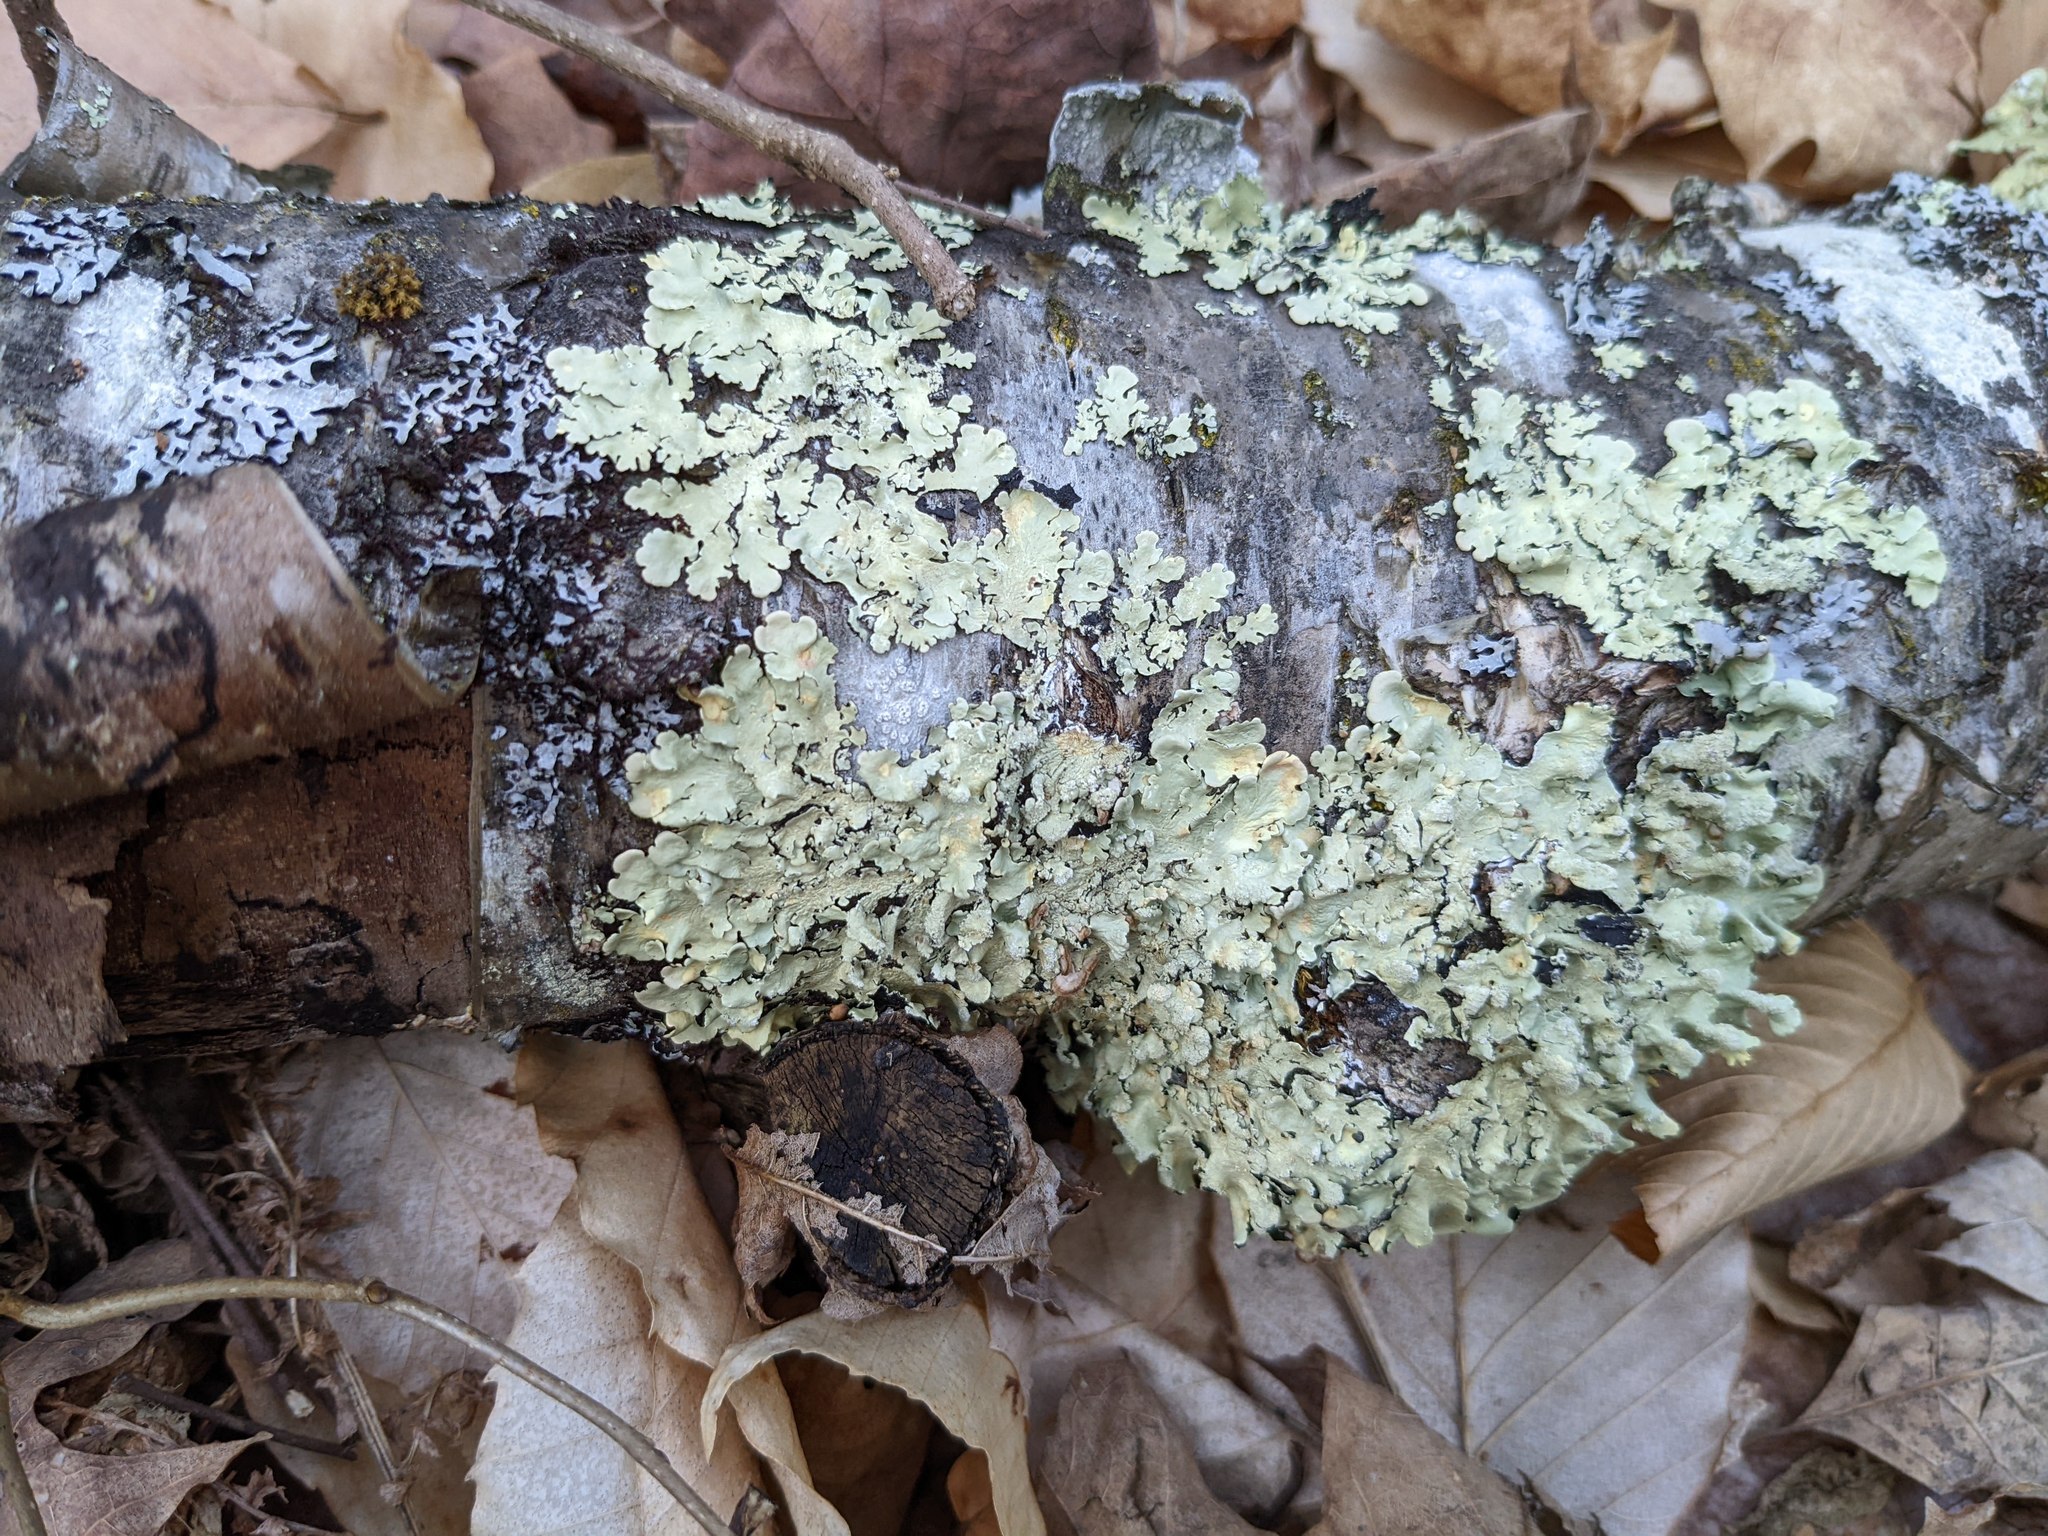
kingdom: Fungi
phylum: Ascomycota
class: Lecanoromycetes
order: Lecanorales
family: Parmeliaceae
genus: Flavoparmelia
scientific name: Flavoparmelia caperata
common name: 40-mile per hour lichen
